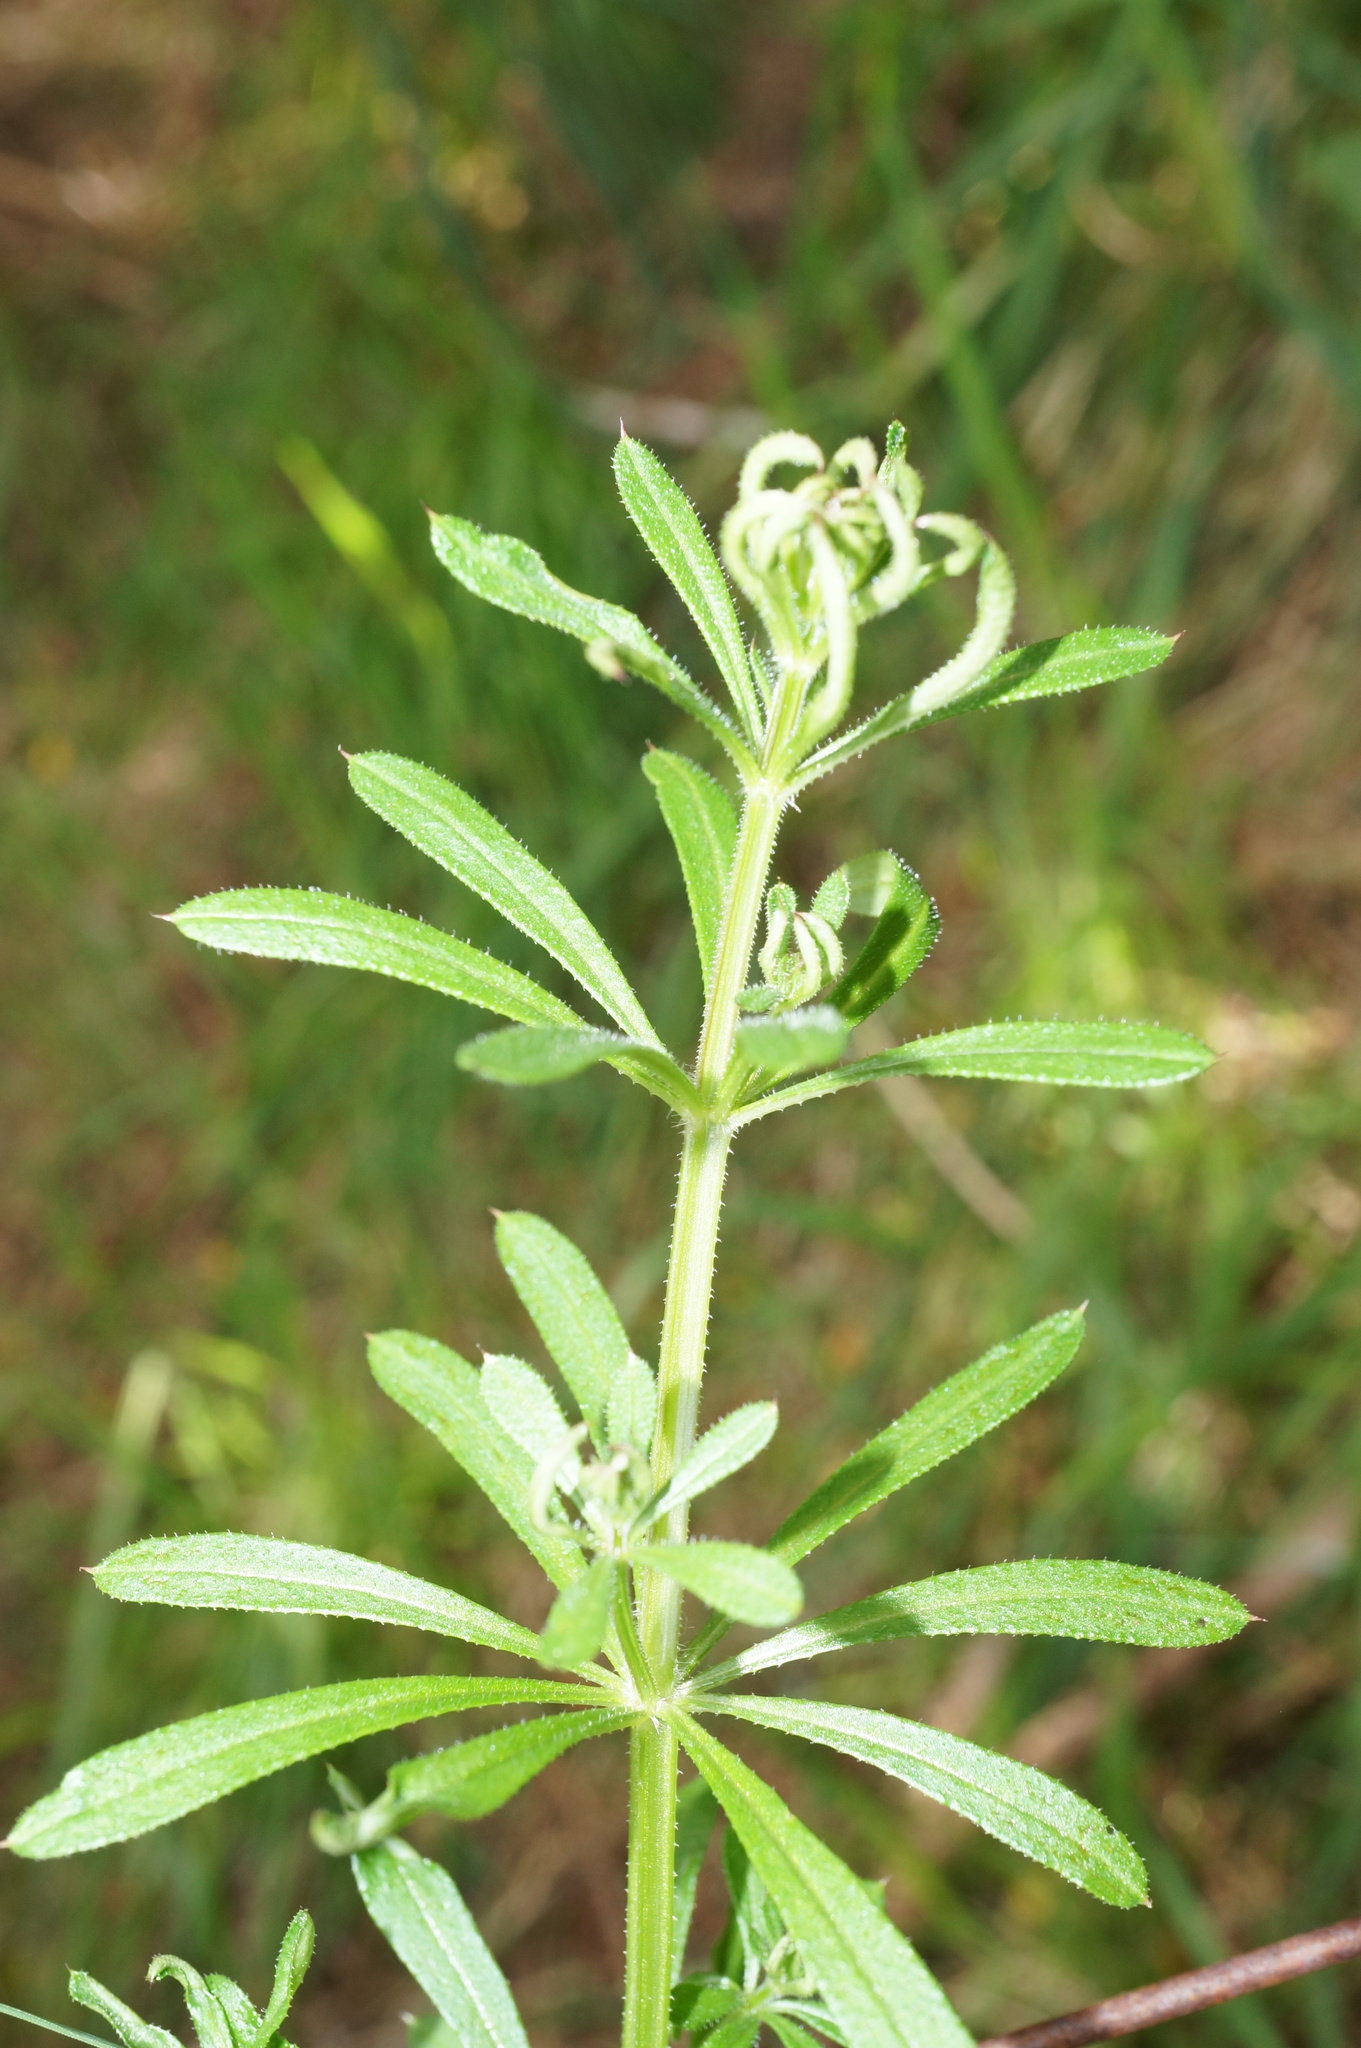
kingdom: Plantae
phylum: Tracheophyta
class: Magnoliopsida
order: Gentianales
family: Rubiaceae
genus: Galium
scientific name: Galium aparine
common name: Cleavers
